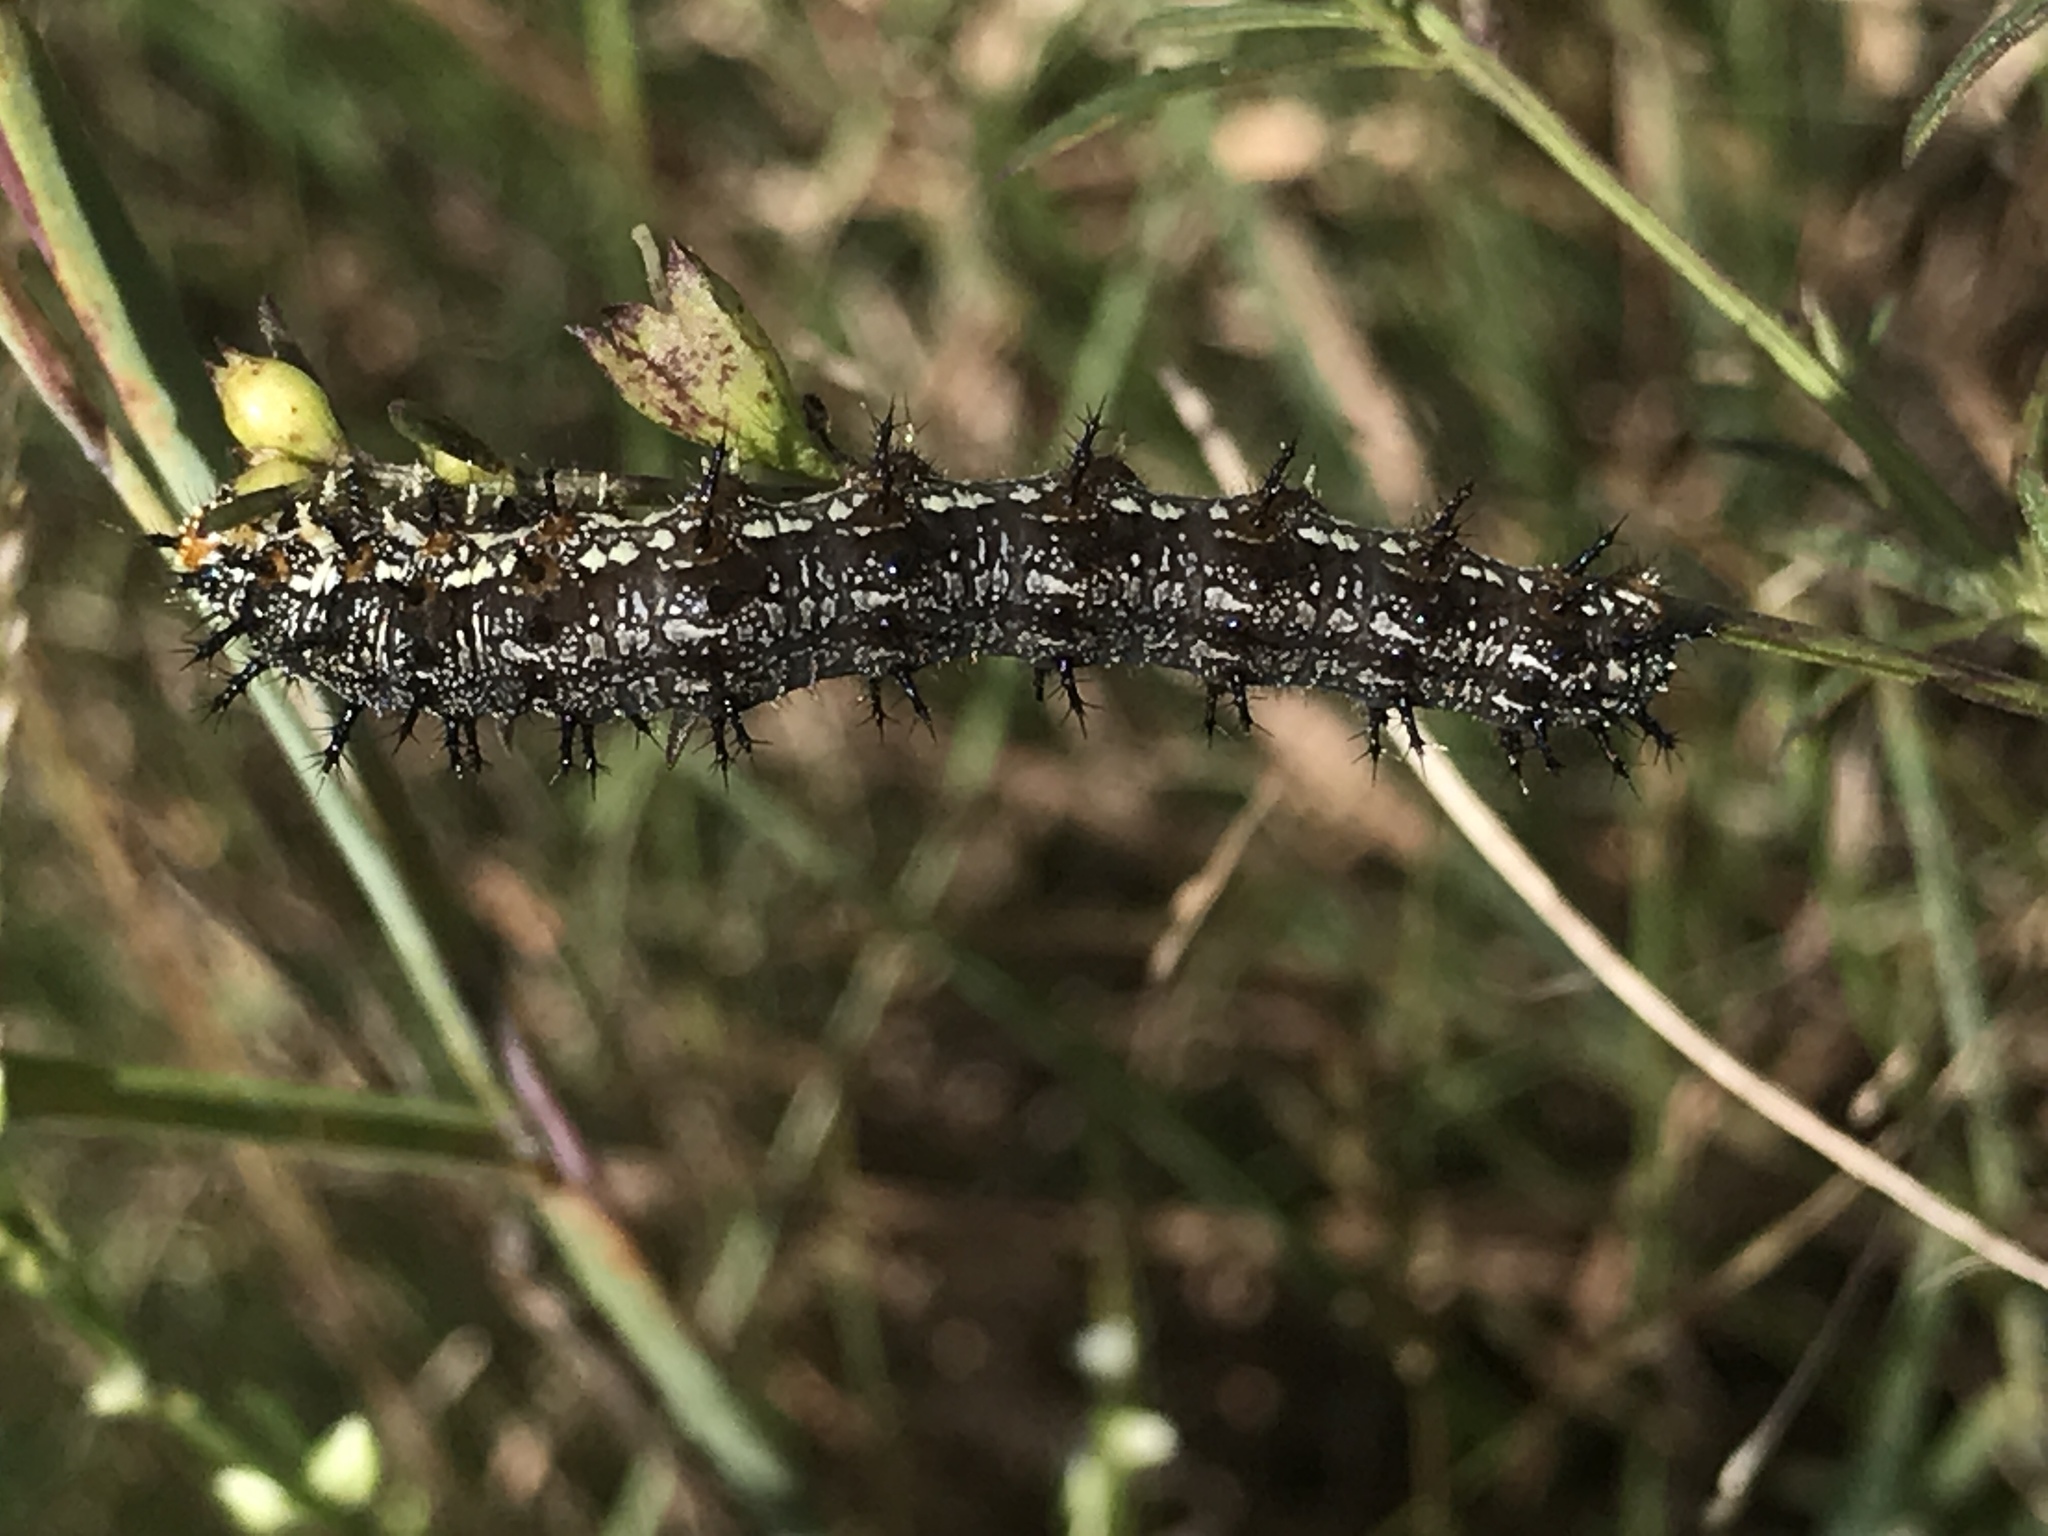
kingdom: Animalia
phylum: Arthropoda
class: Insecta
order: Lepidoptera
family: Nymphalidae
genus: Junonia
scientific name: Junonia coenia
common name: Common buckeye
